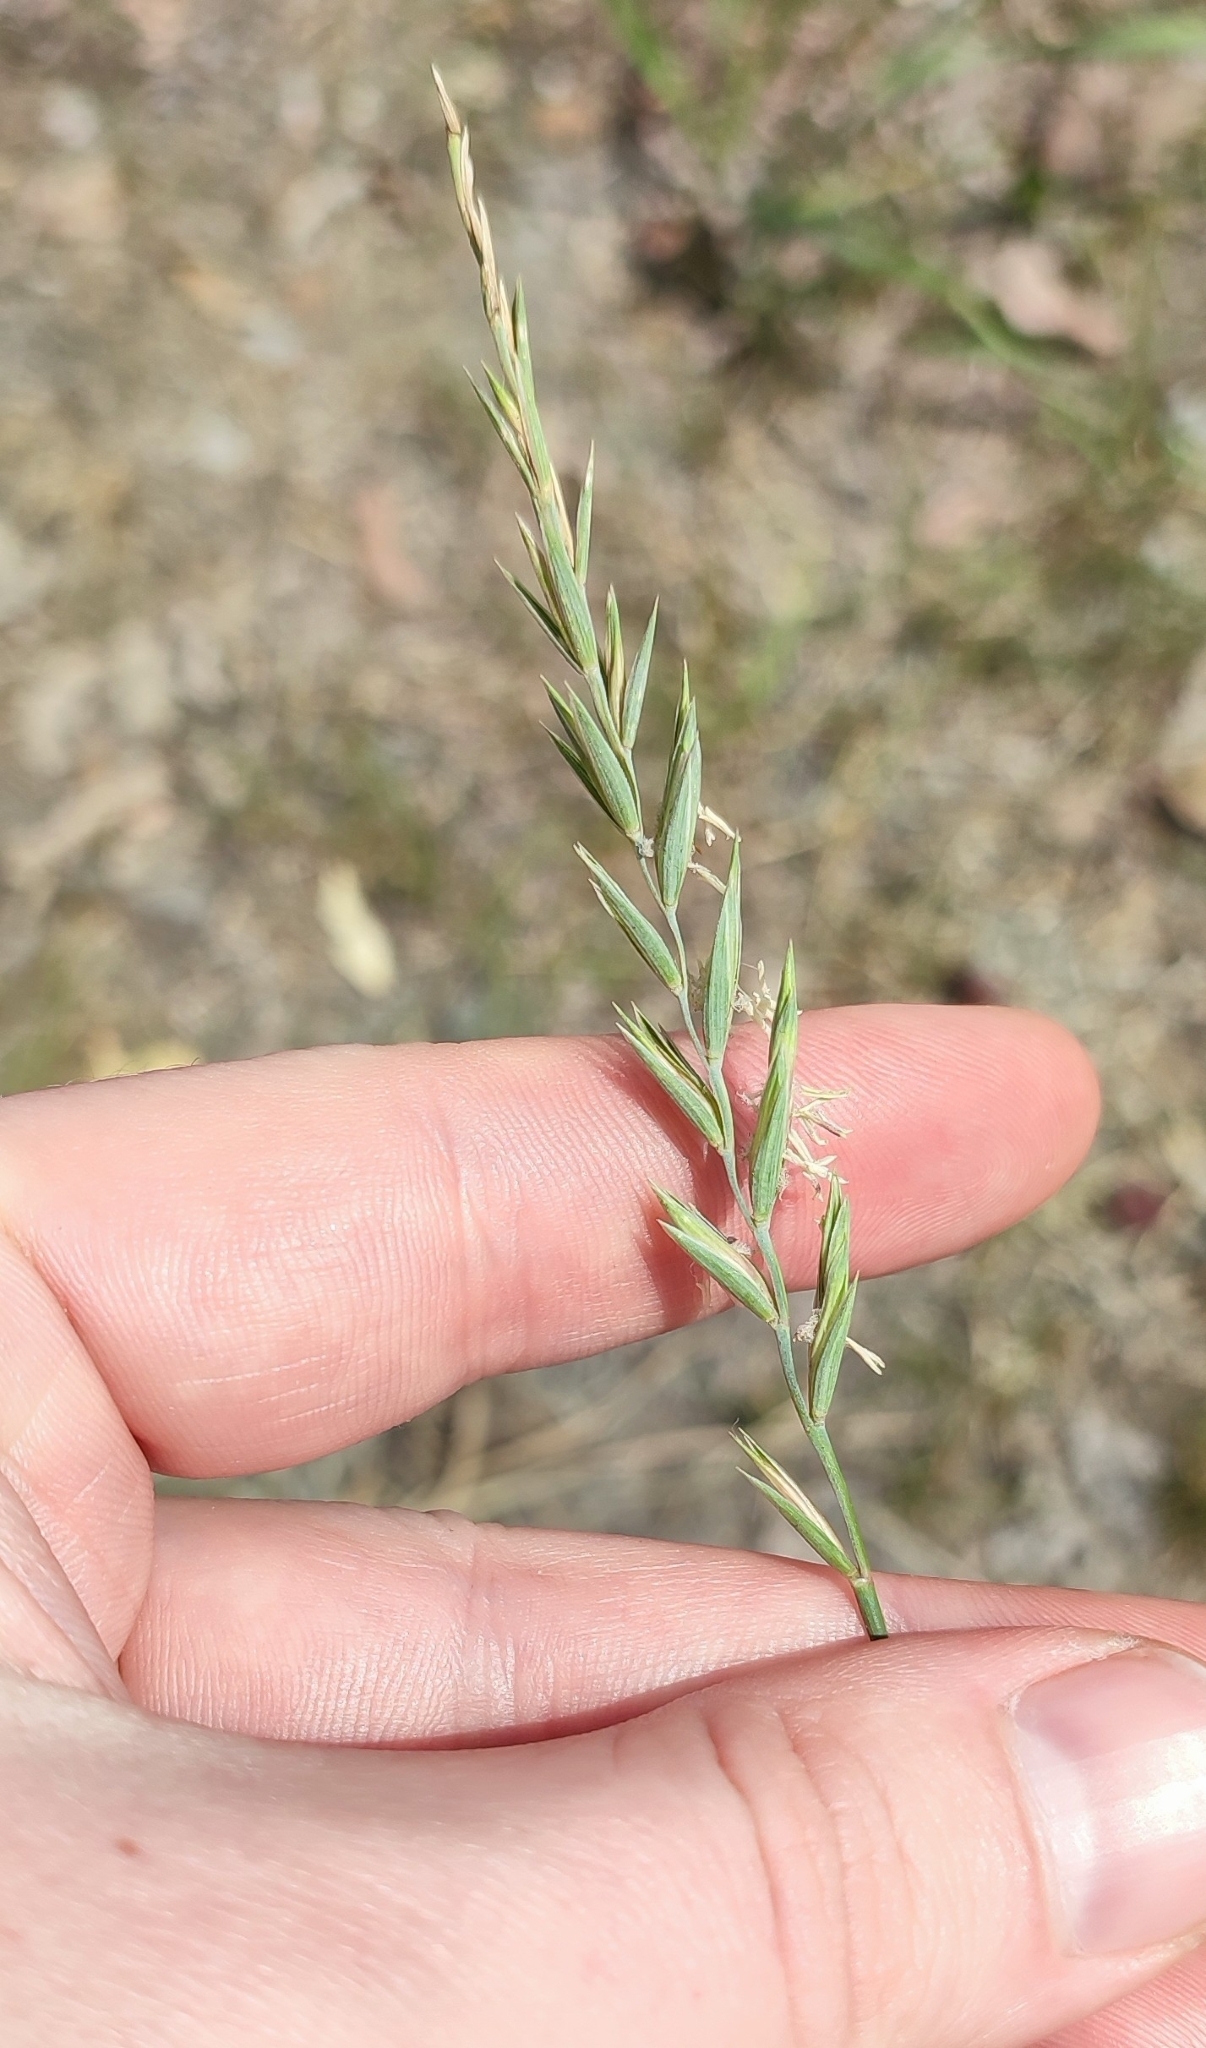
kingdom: Plantae
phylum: Tracheophyta
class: Liliopsida
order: Poales
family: Poaceae
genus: Elymus
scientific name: Elymus repens
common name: Quackgrass
